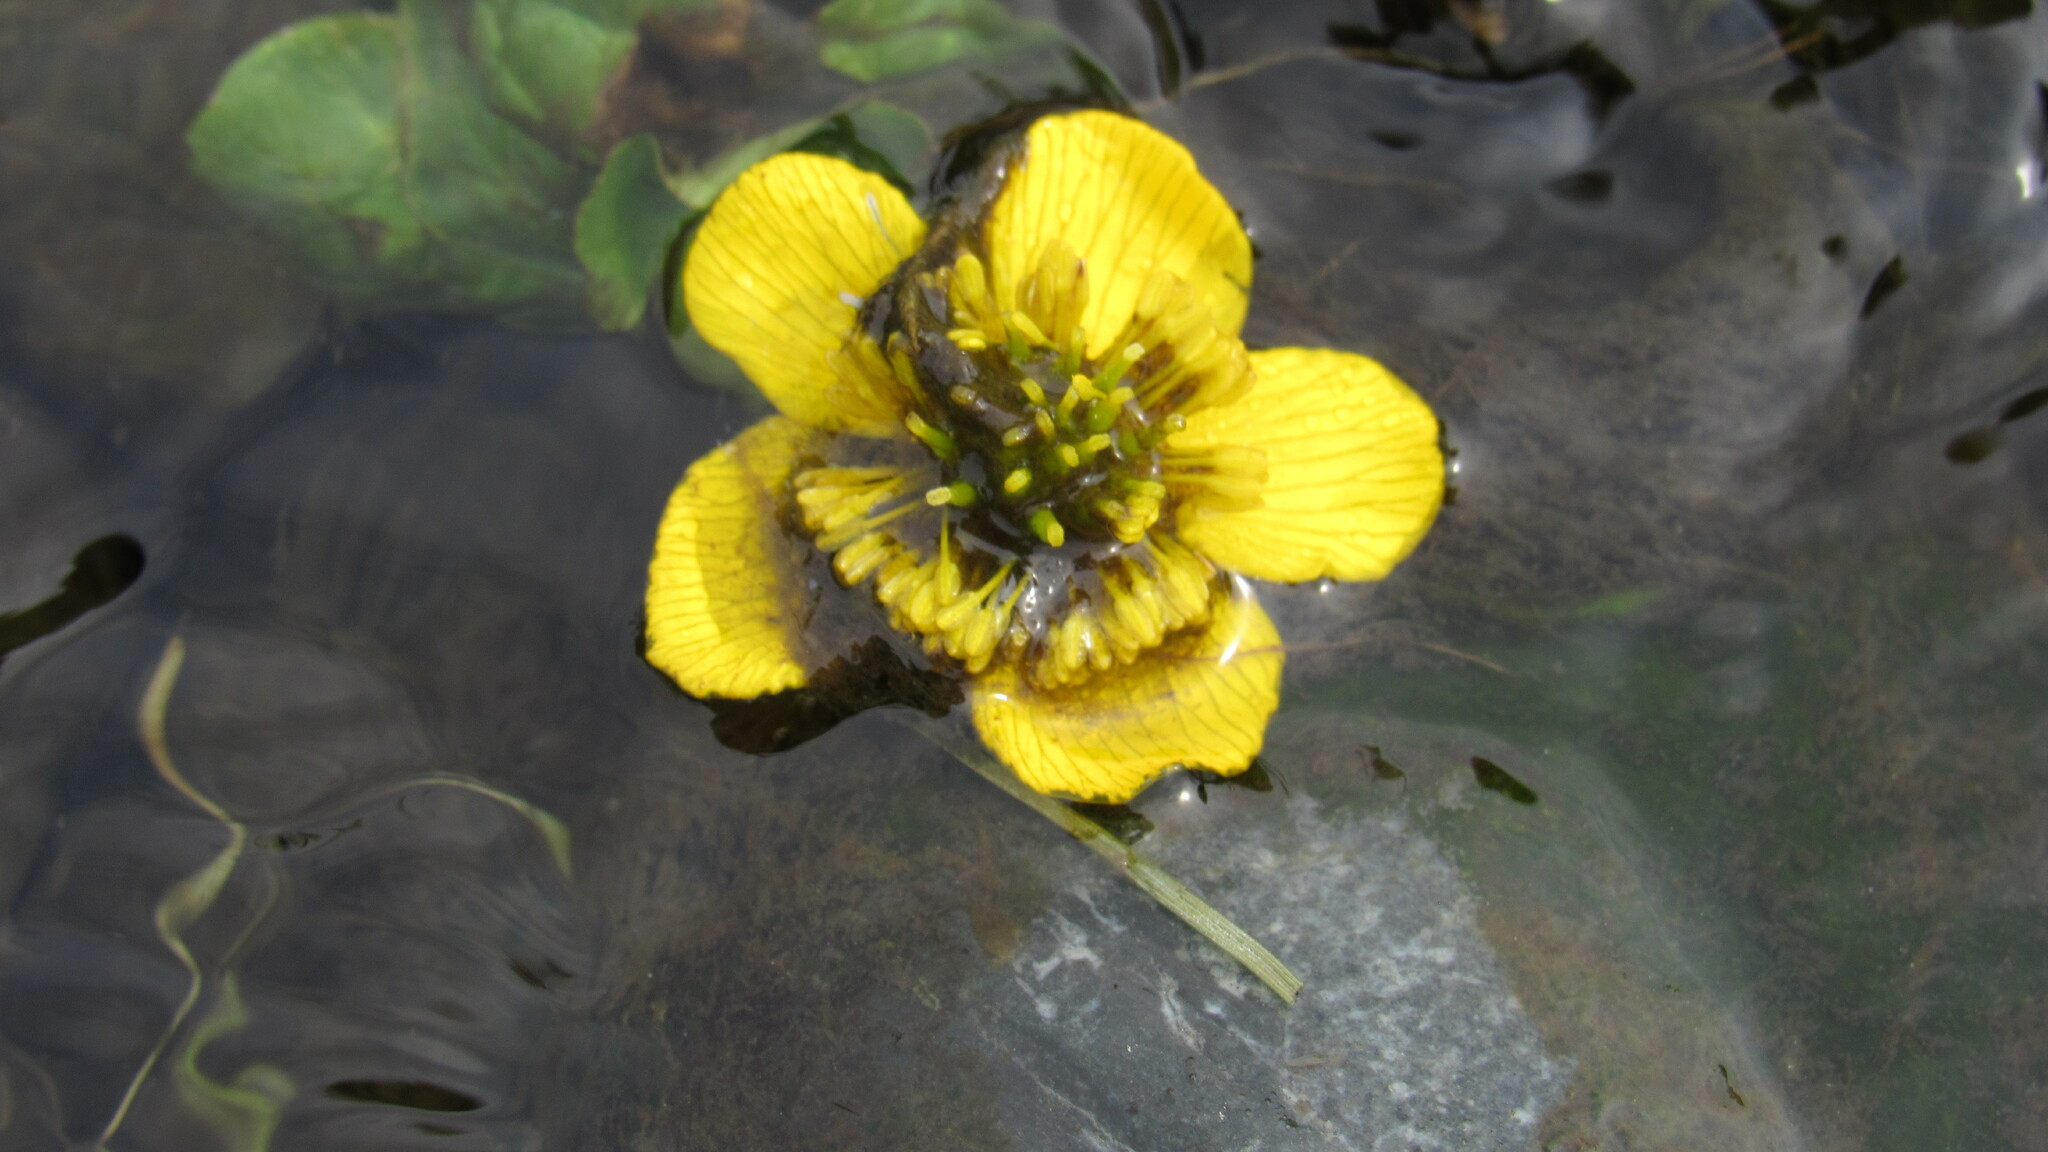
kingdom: Plantae
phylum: Tracheophyta
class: Magnoliopsida
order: Ranunculales
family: Ranunculaceae
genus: Caltha
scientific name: Caltha palustris
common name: Marsh marigold
